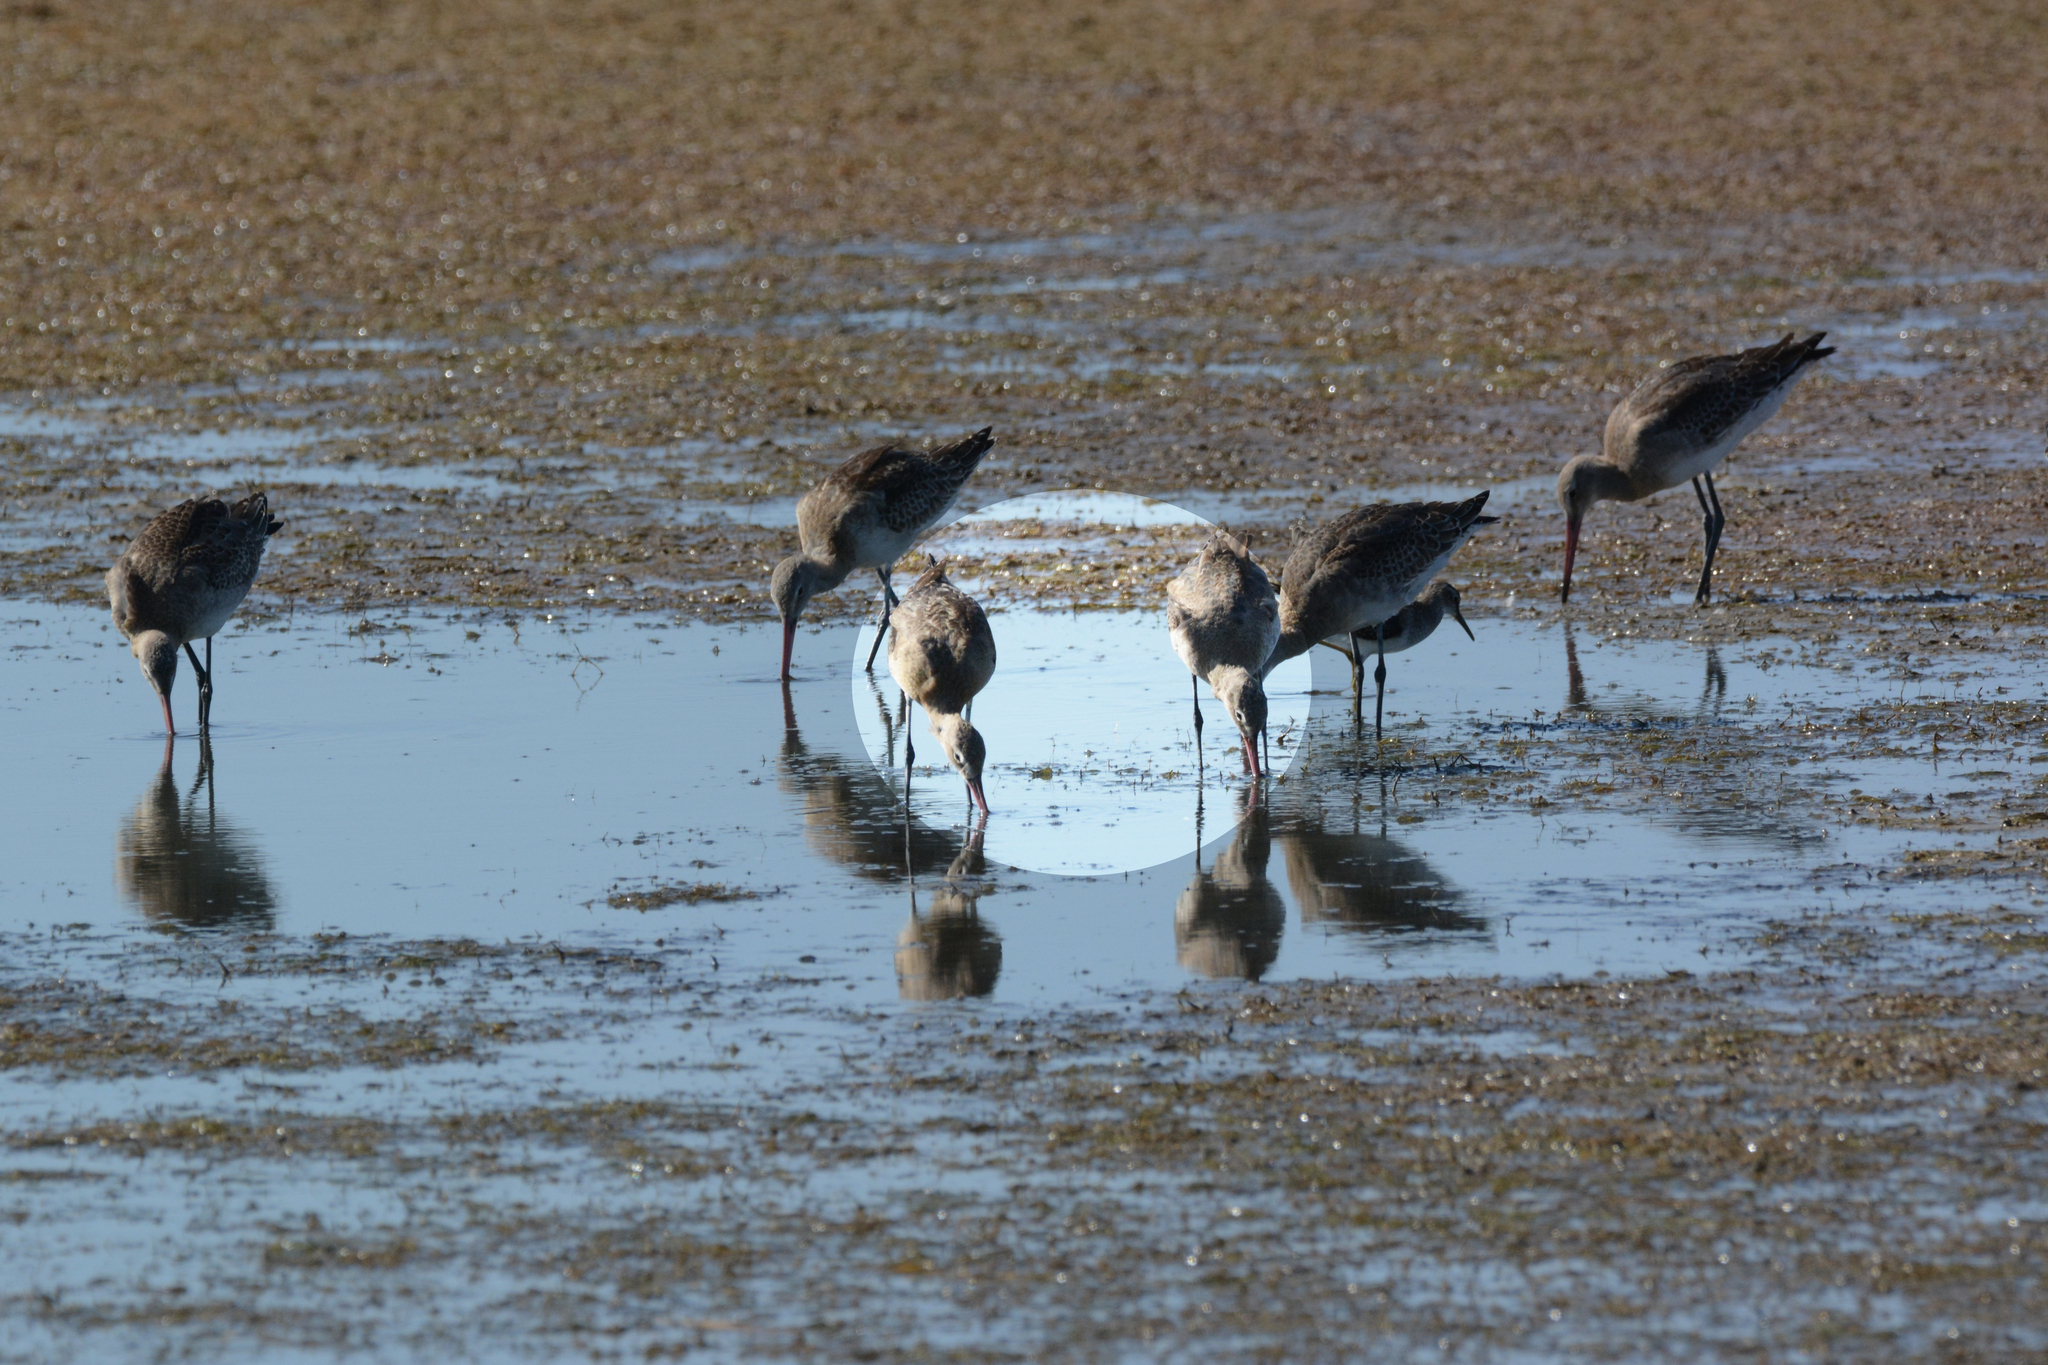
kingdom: Animalia
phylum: Chordata
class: Aves
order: Charadriiformes
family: Scolopacidae
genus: Limosa
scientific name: Limosa limosa
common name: Black-tailed godwit
